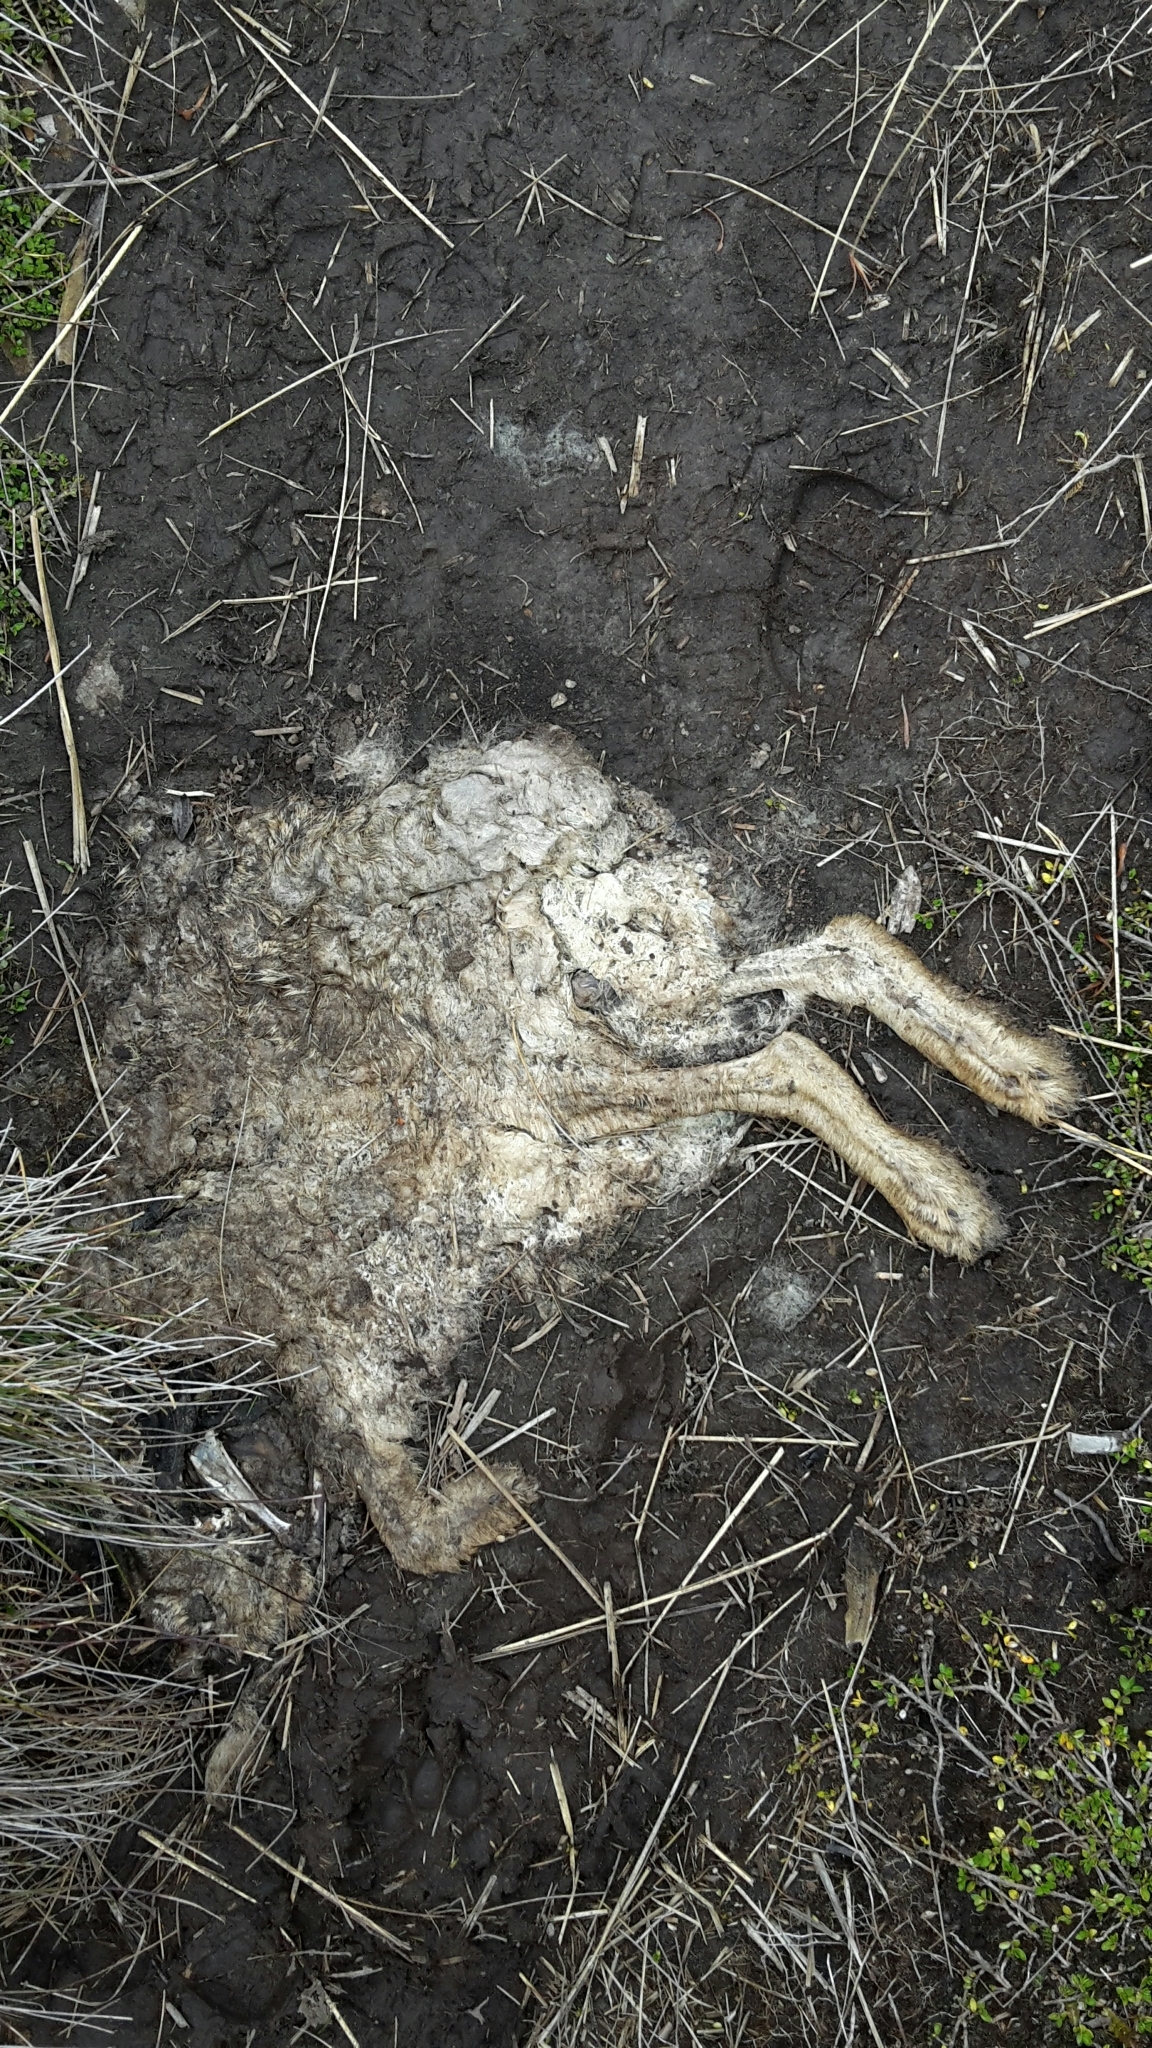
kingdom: Animalia
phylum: Chordata
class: Mammalia
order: Lagomorpha
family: Leporidae
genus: Lepus
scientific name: Lepus europaeus
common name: European hare
